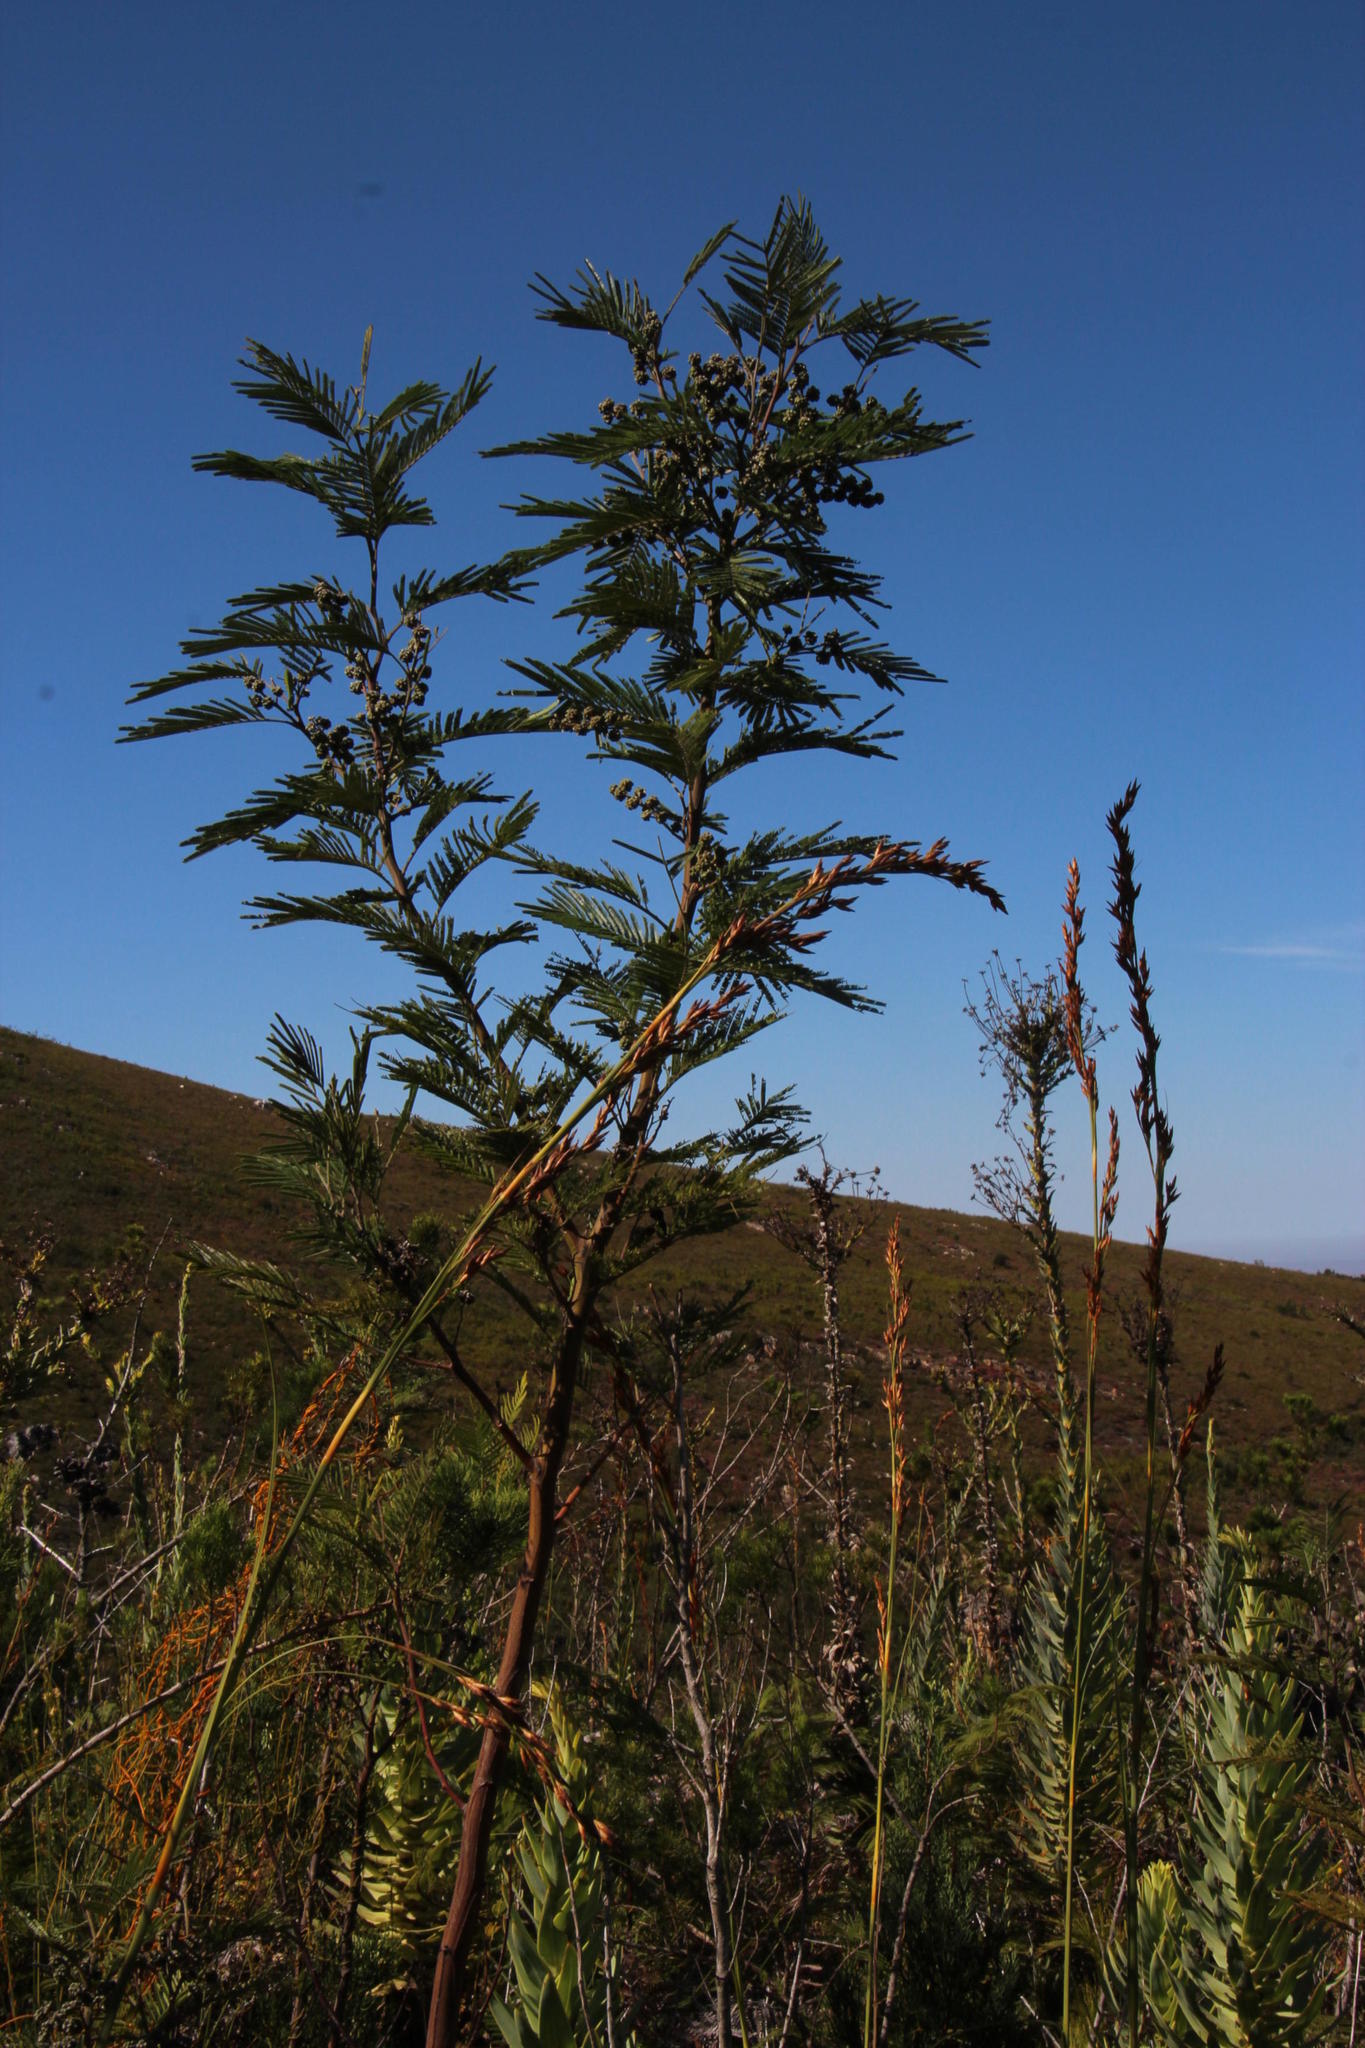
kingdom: Plantae
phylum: Tracheophyta
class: Magnoliopsida
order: Fabales
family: Fabaceae
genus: Acacia
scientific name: Acacia mearnsii
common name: Black wattle
